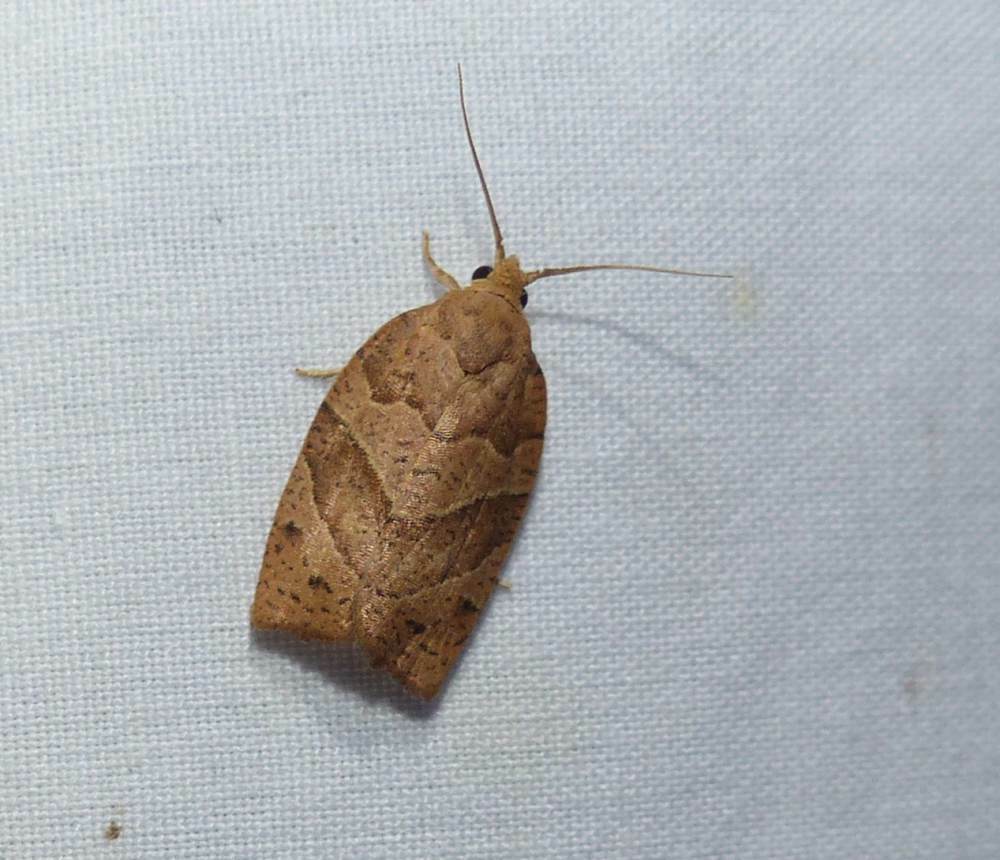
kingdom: Animalia
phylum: Arthropoda
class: Insecta
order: Lepidoptera
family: Tortricidae
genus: Pandemis
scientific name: Pandemis lamprosana
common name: Woodgrain leafroller moth
